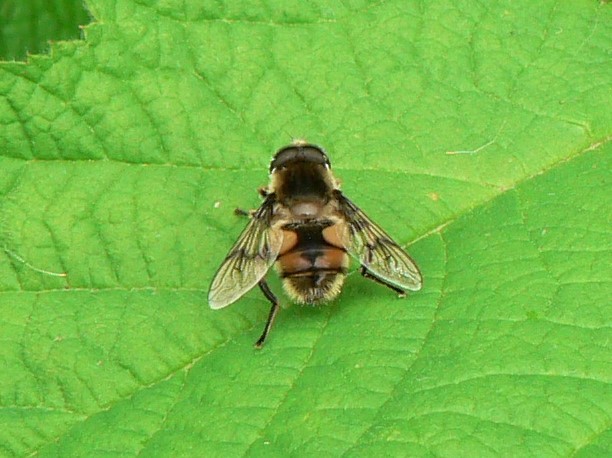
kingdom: Animalia
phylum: Arthropoda
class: Insecta
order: Diptera
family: Syrphidae
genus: Eristalis
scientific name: Eristalis anthophorina
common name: Orange-spotted drone fly
